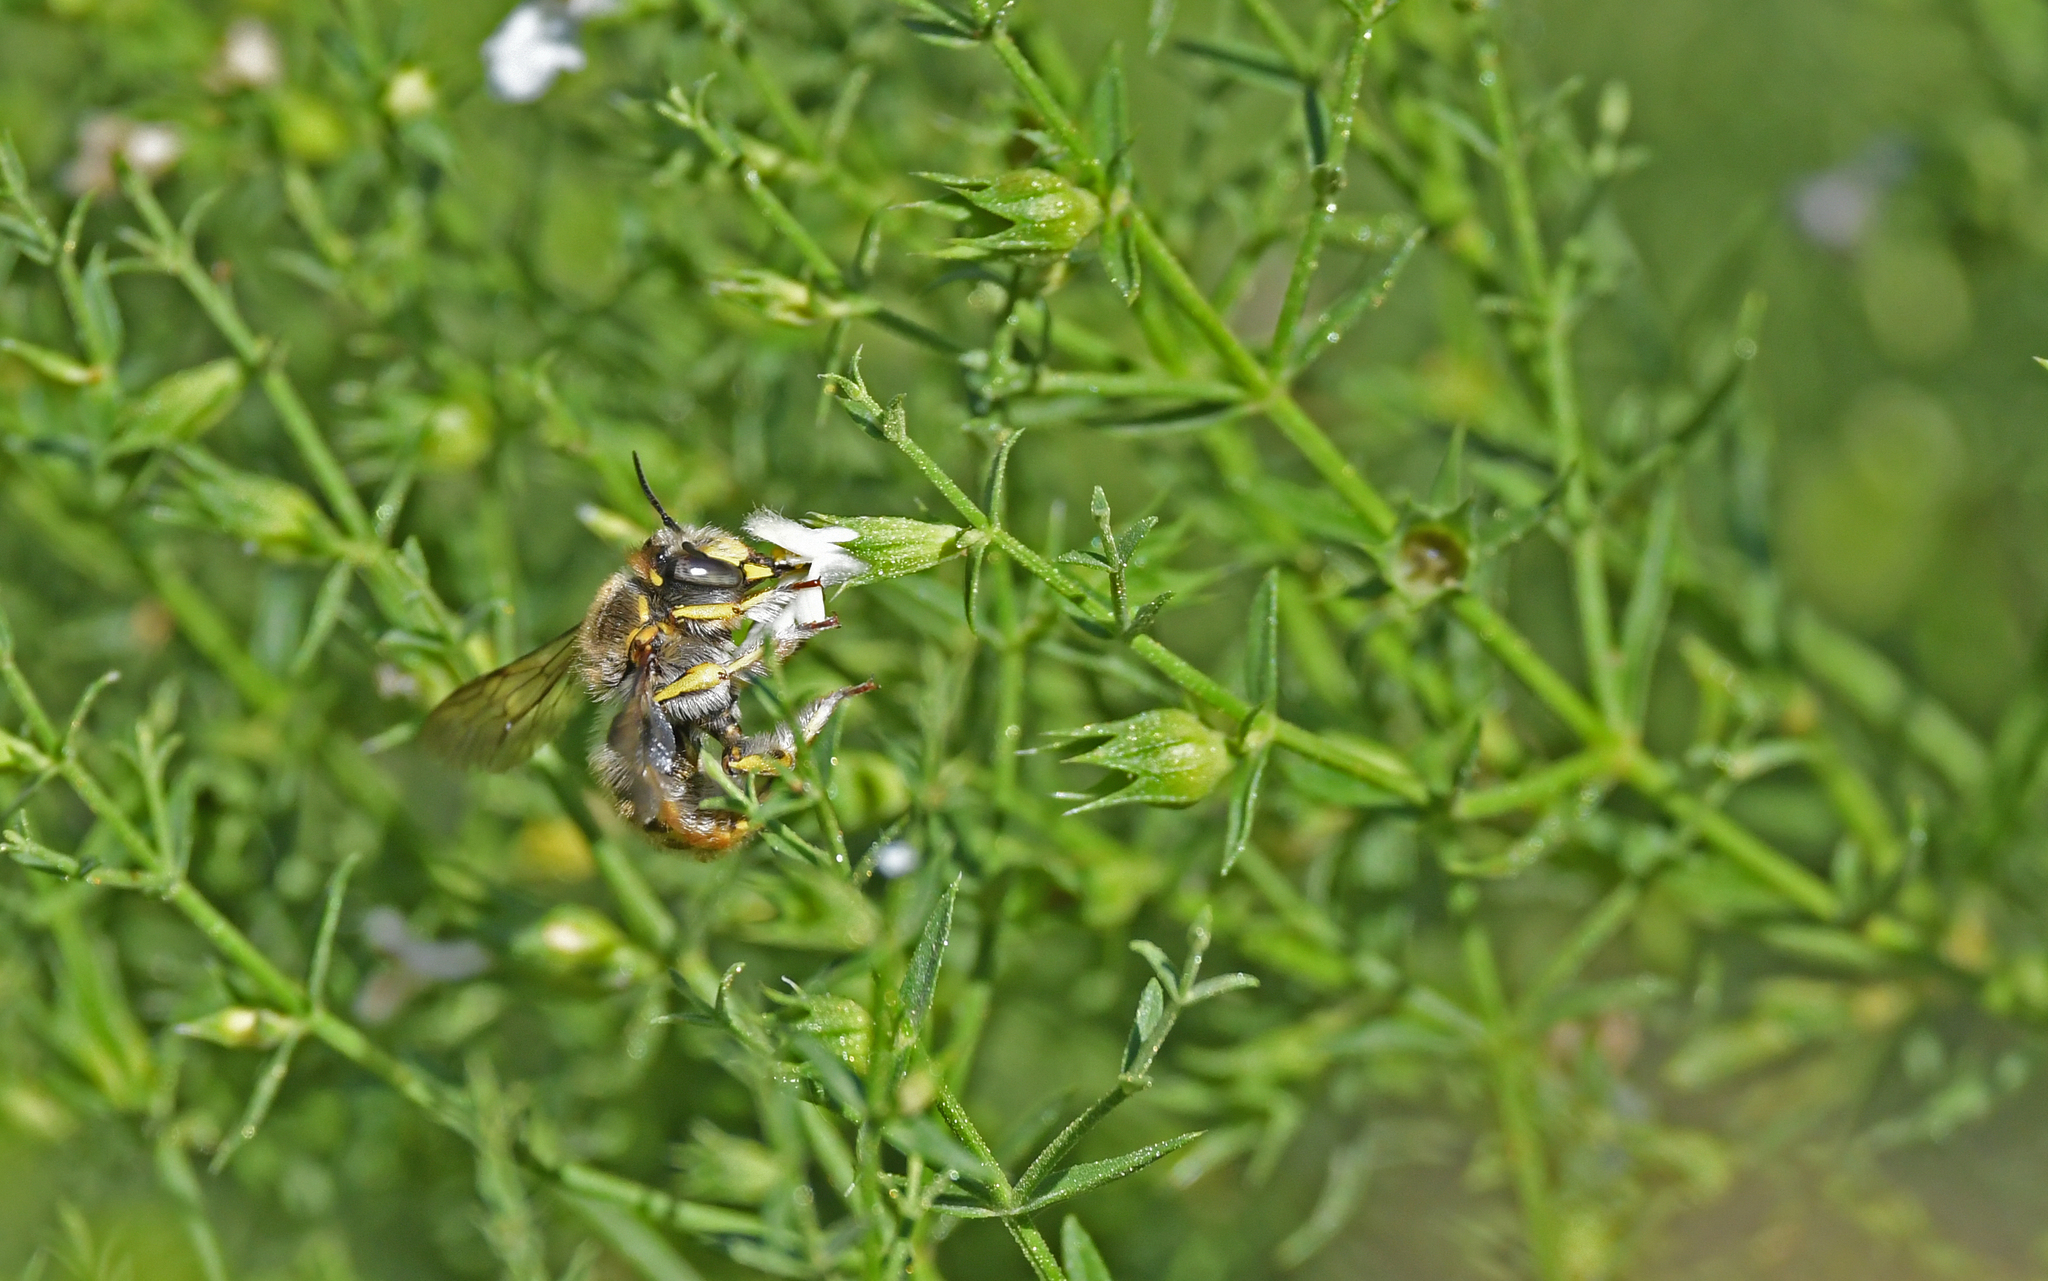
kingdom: Animalia
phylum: Arthropoda
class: Insecta
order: Hymenoptera
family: Megachilidae
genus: Anthidium
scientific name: Anthidium manicatum
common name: Wool carder bee
